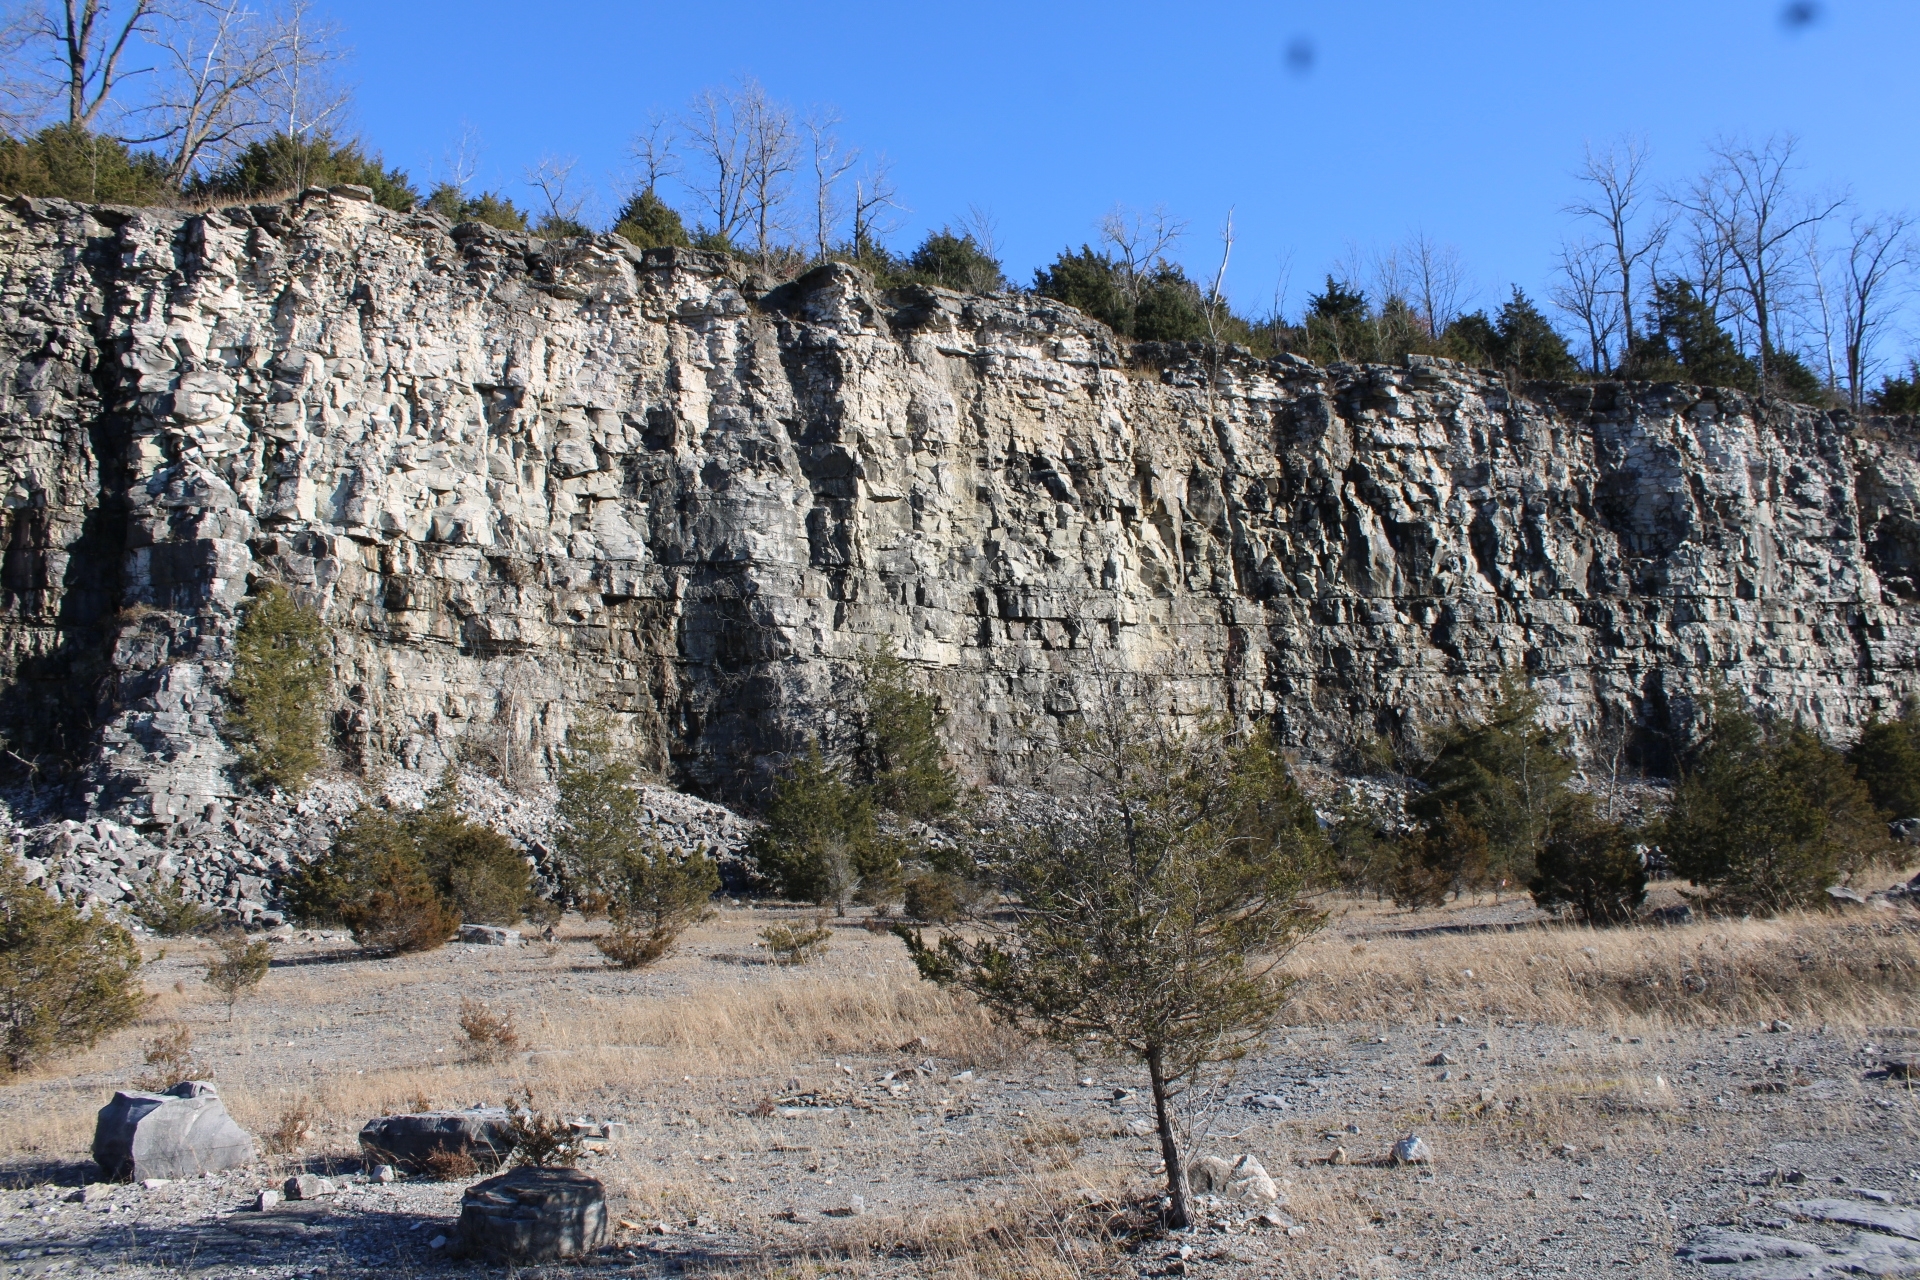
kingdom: Plantae
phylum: Tracheophyta
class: Pinopsida
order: Pinales
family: Cupressaceae
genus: Juniperus
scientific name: Juniperus virginiana
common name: Red juniper
